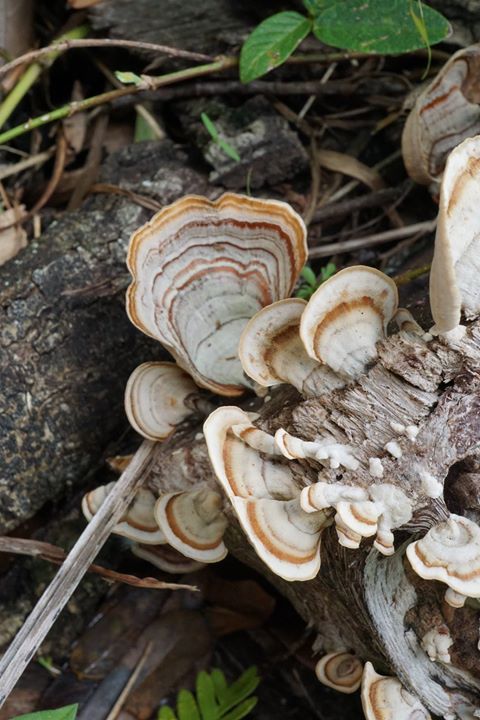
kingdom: Fungi
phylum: Basidiomycota
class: Agaricomycetes
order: Russulales
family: Stereaceae
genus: Stereum
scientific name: Stereum lobatum
